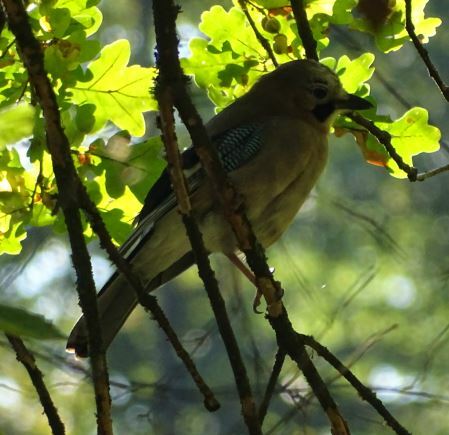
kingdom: Animalia
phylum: Chordata
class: Aves
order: Passeriformes
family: Corvidae
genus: Garrulus
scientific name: Garrulus glandarius
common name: Eurasian jay
